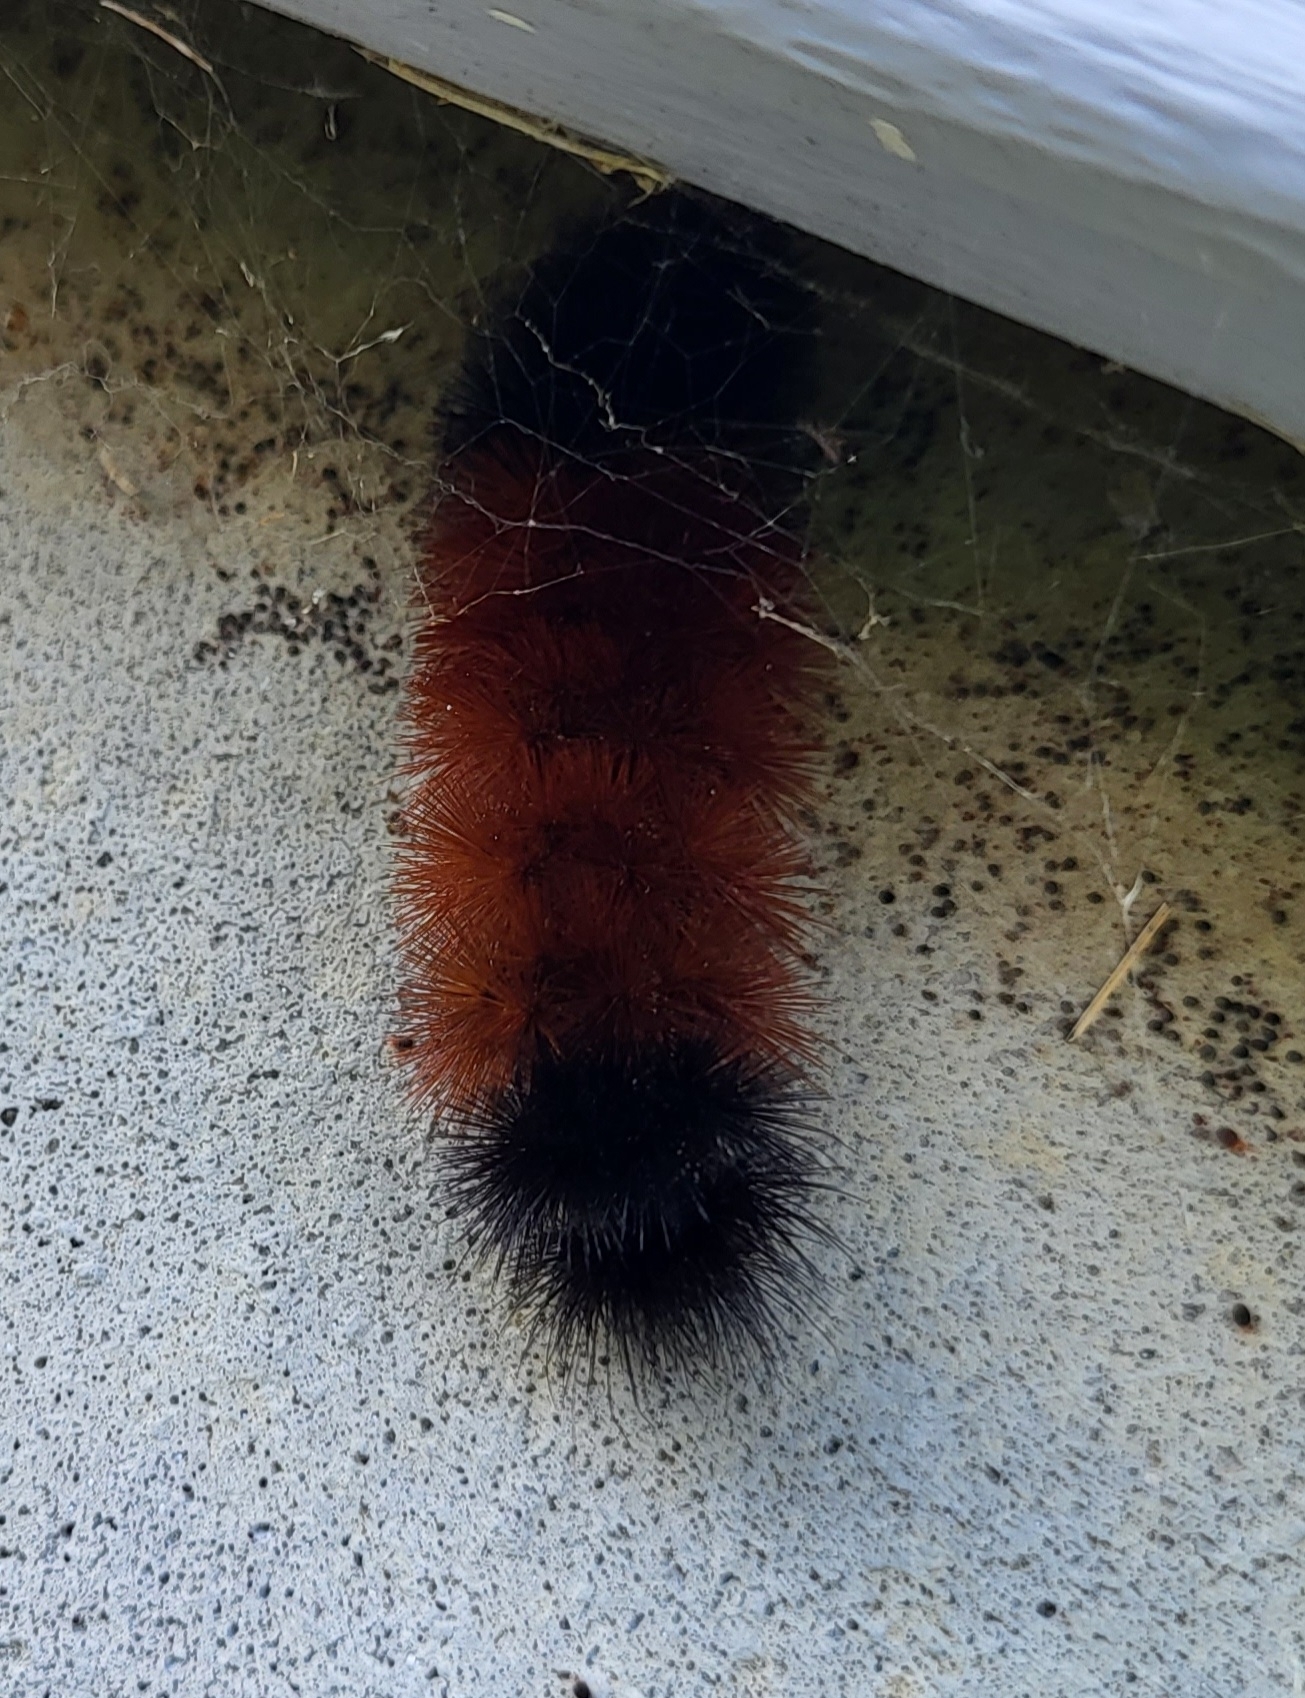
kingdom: Animalia
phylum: Arthropoda
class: Insecta
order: Lepidoptera
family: Erebidae
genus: Pyrrharctia
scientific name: Pyrrharctia isabella
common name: Isabella tiger moth
